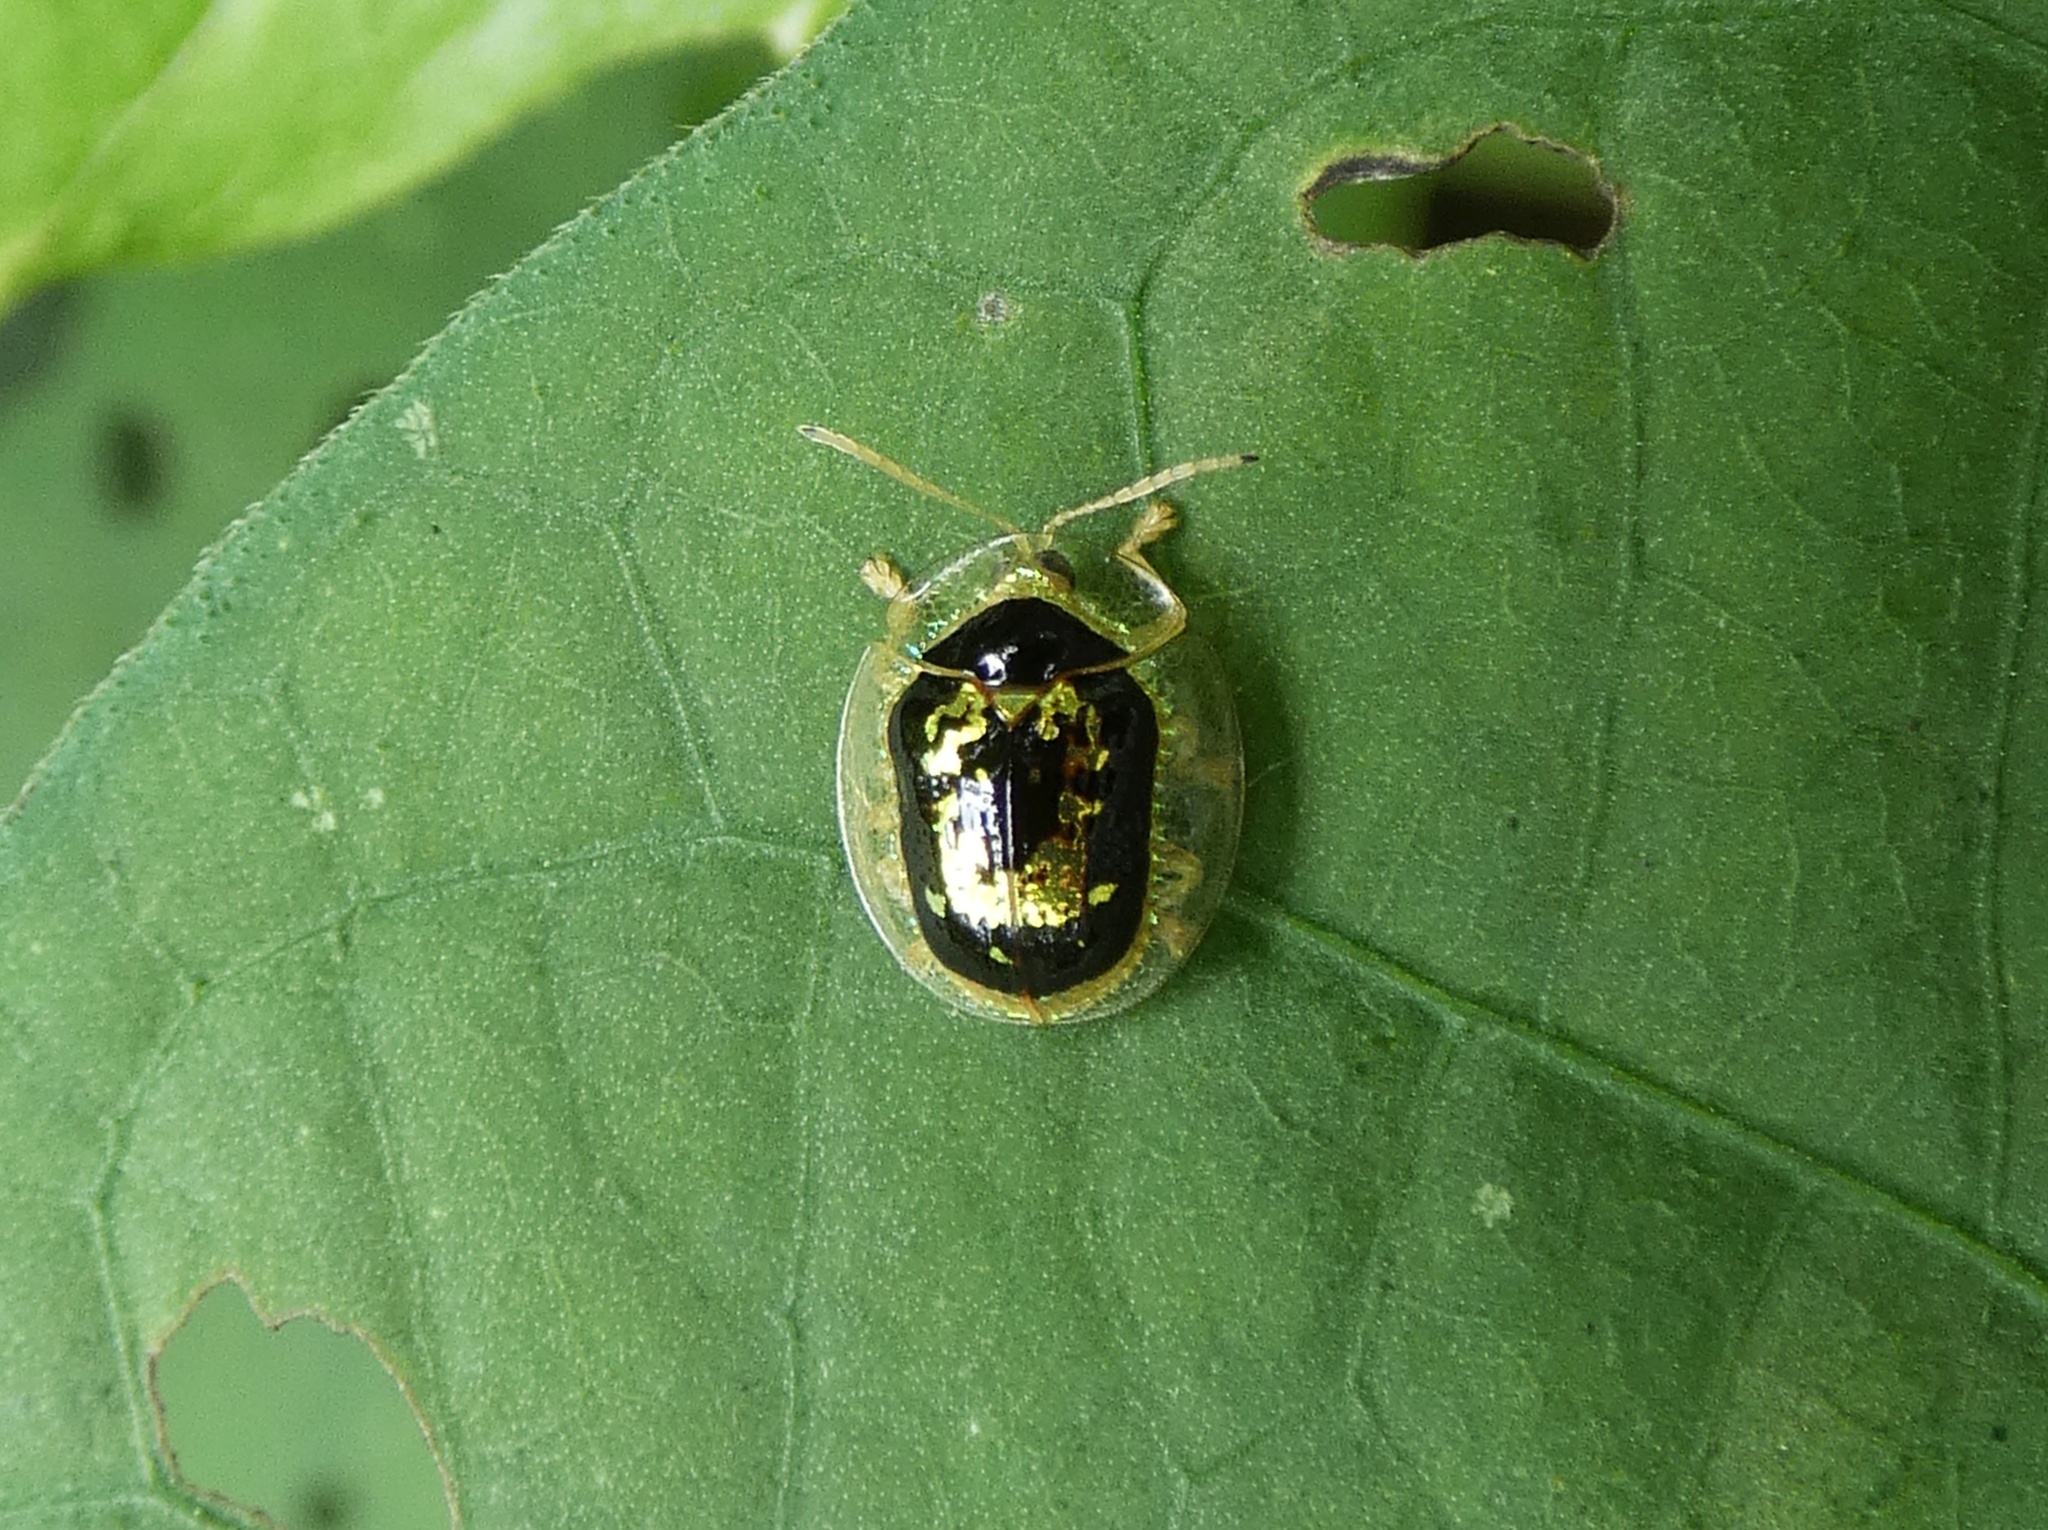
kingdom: Animalia
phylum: Arthropoda
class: Insecta
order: Coleoptera
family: Chrysomelidae
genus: Microctenochira
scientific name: Microctenochira panamensis
